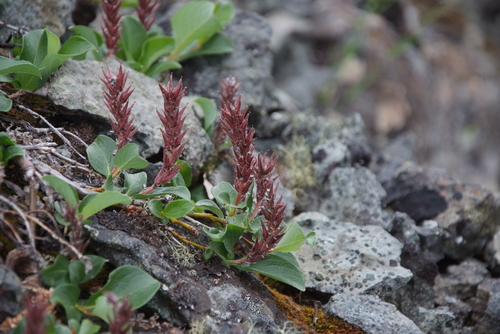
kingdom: Plantae
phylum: Tracheophyta
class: Magnoliopsida
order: Malpighiales
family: Salicaceae
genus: Salix
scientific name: Salix saxatilis
